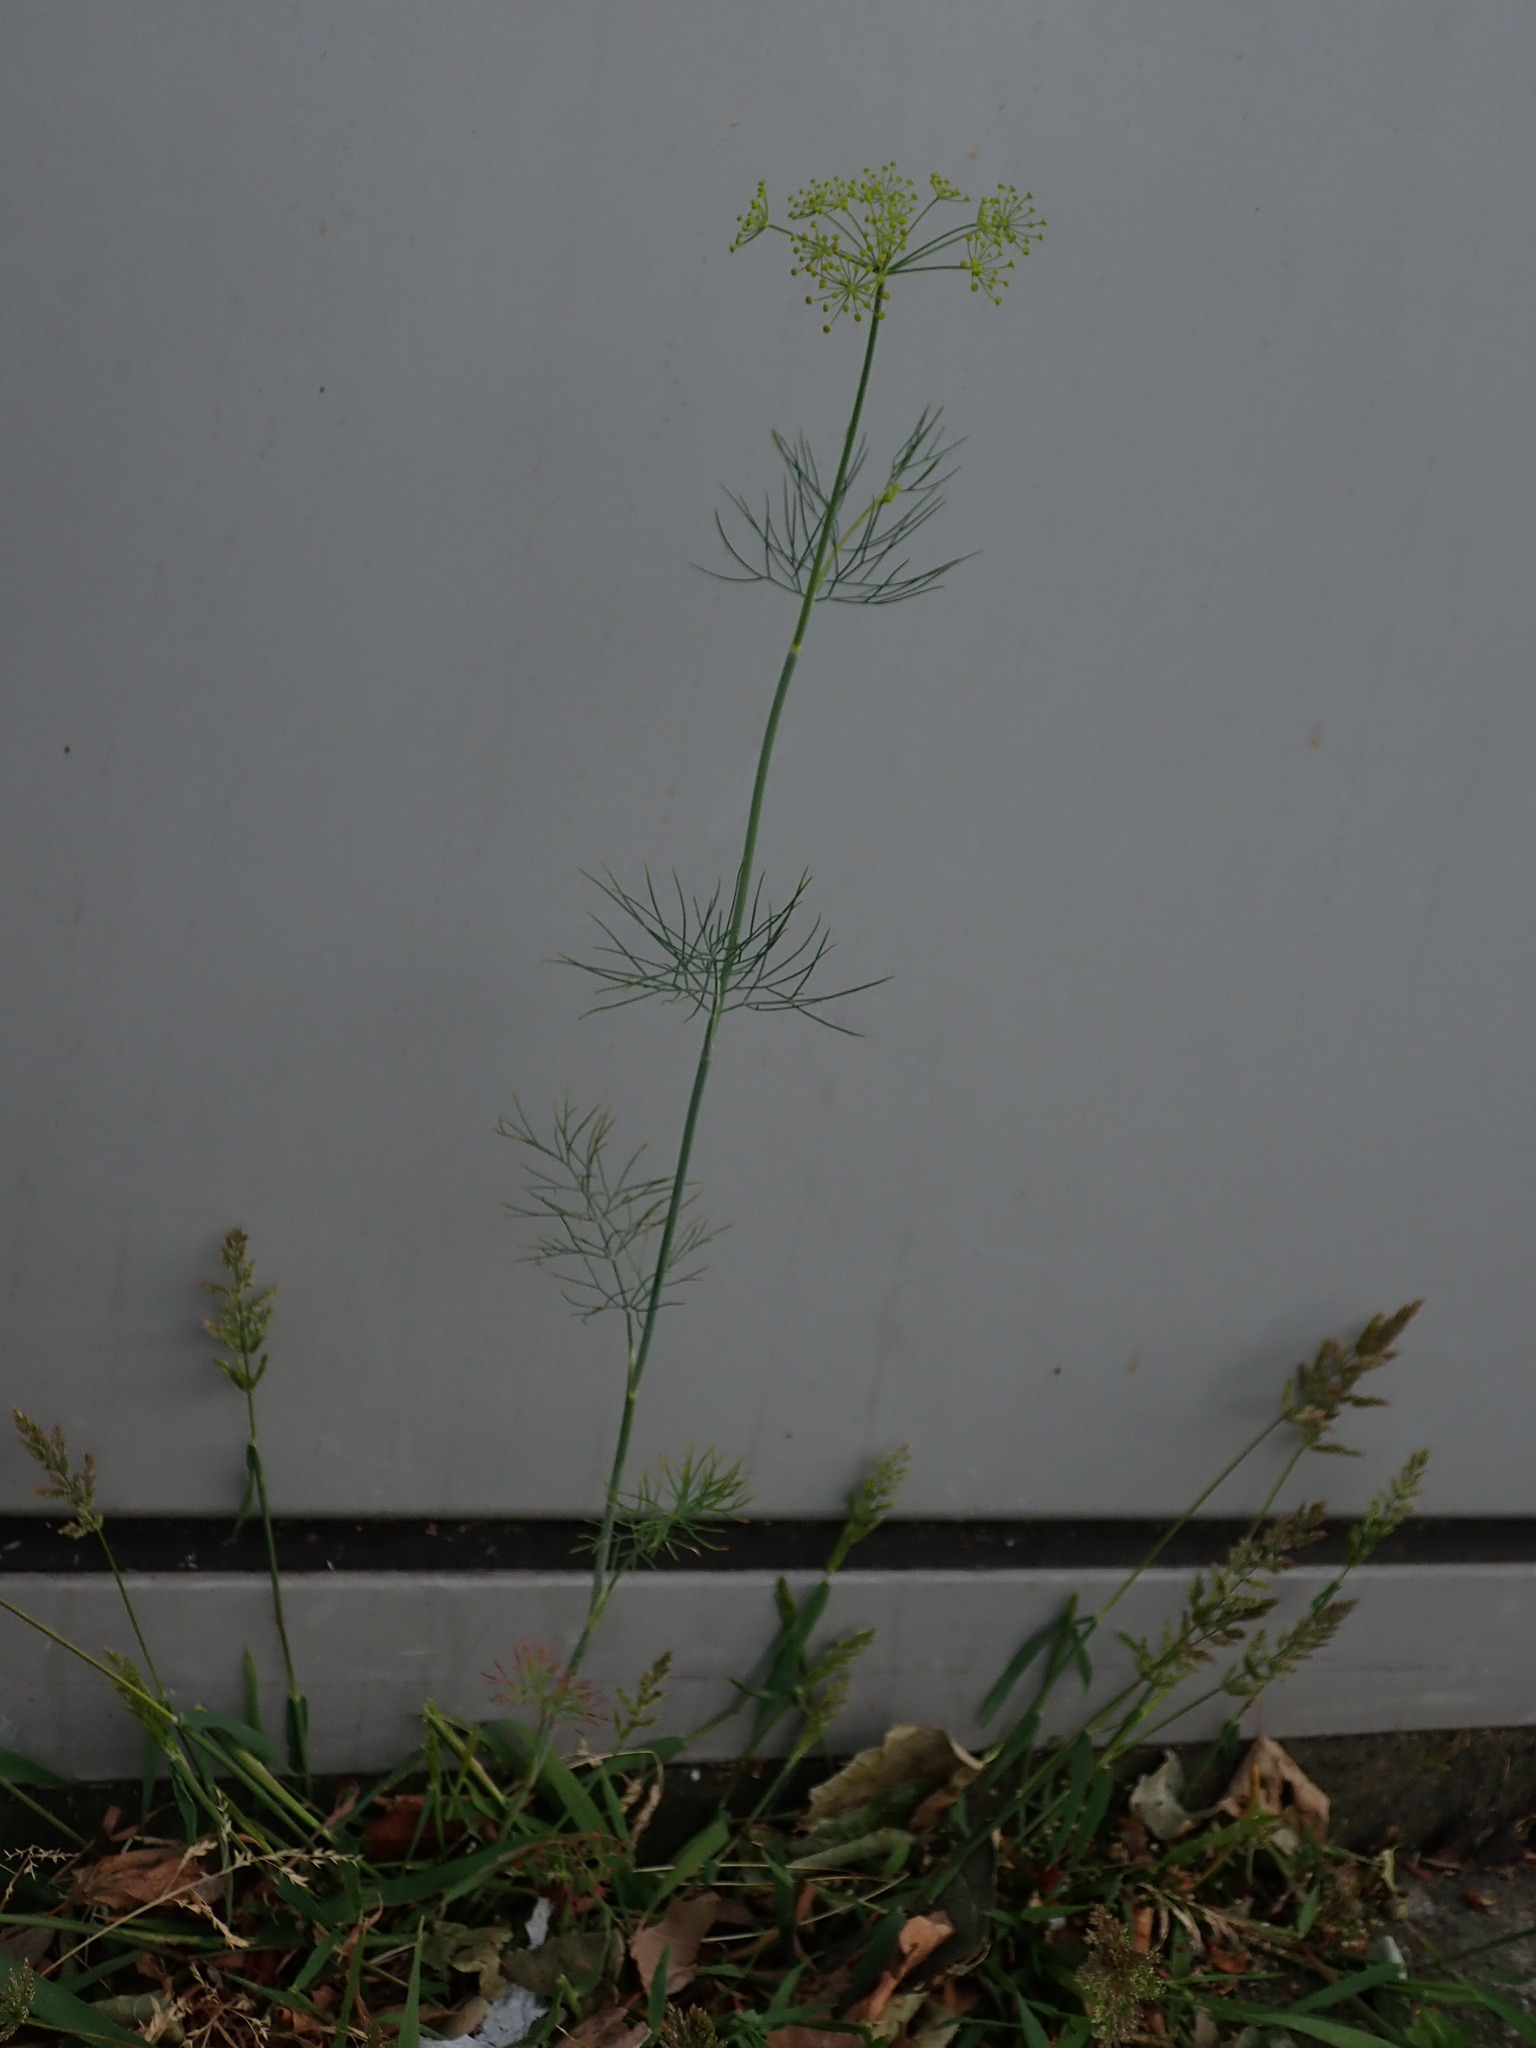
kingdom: Plantae
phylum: Tracheophyta
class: Magnoliopsida
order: Apiales
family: Apiaceae
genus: Anethum
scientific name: Anethum graveolens
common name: Dill
